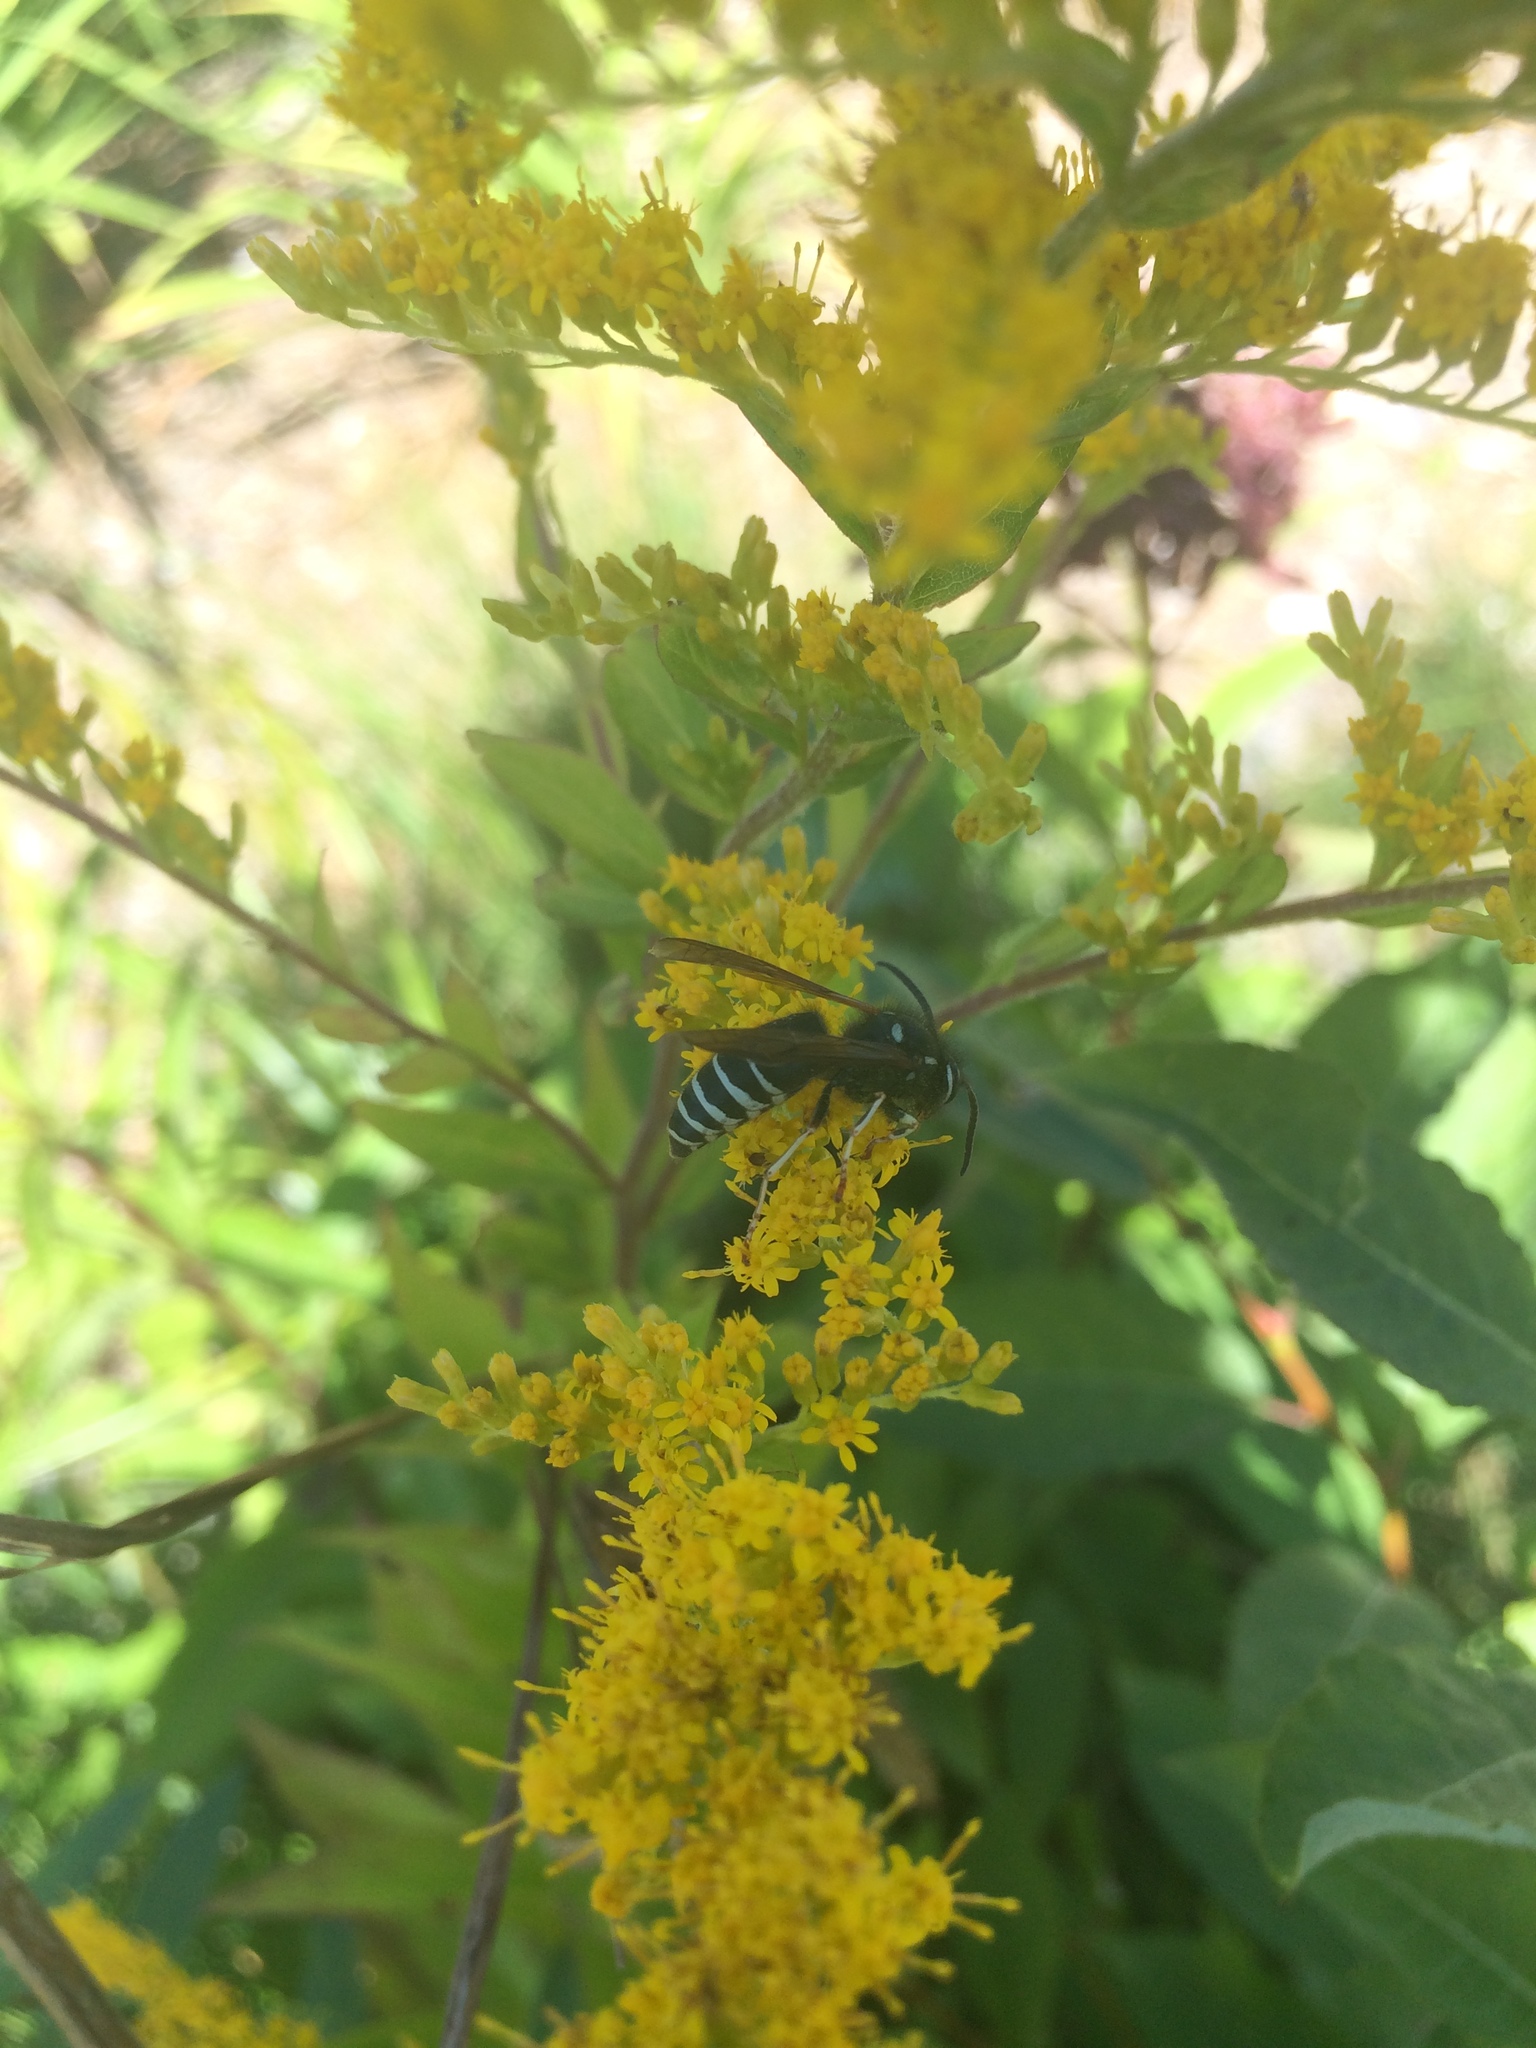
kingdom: Animalia
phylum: Arthropoda
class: Insecta
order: Hymenoptera
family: Vespidae
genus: Vespula
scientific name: Vespula consobrina
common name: Blackjacket
